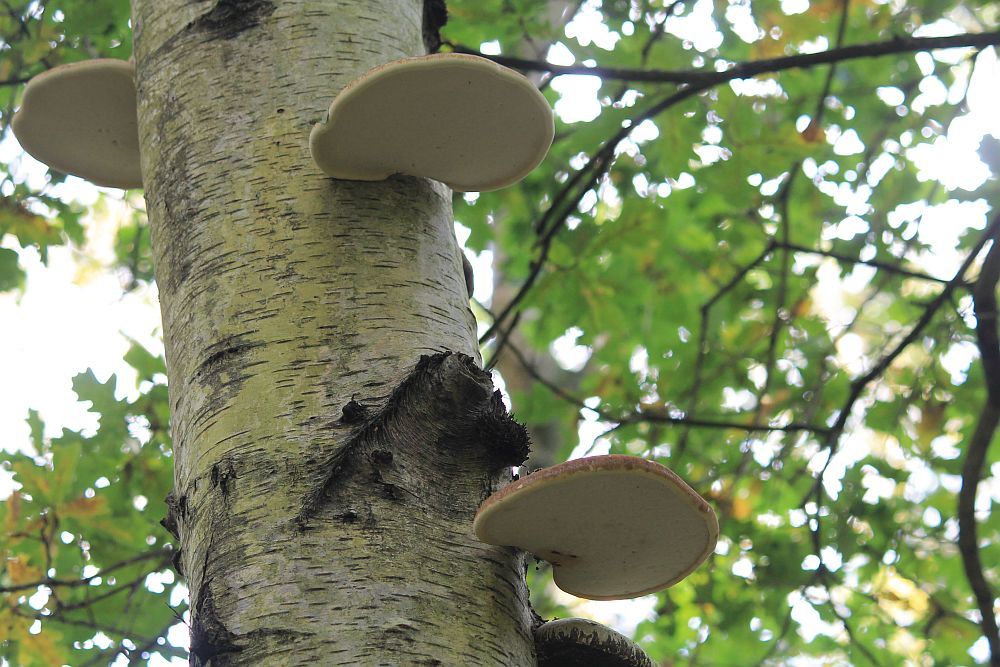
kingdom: Fungi
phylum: Basidiomycota
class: Agaricomycetes
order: Polyporales
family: Fomitopsidaceae
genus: Fomitopsis
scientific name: Fomitopsis betulina
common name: Birch polypore
